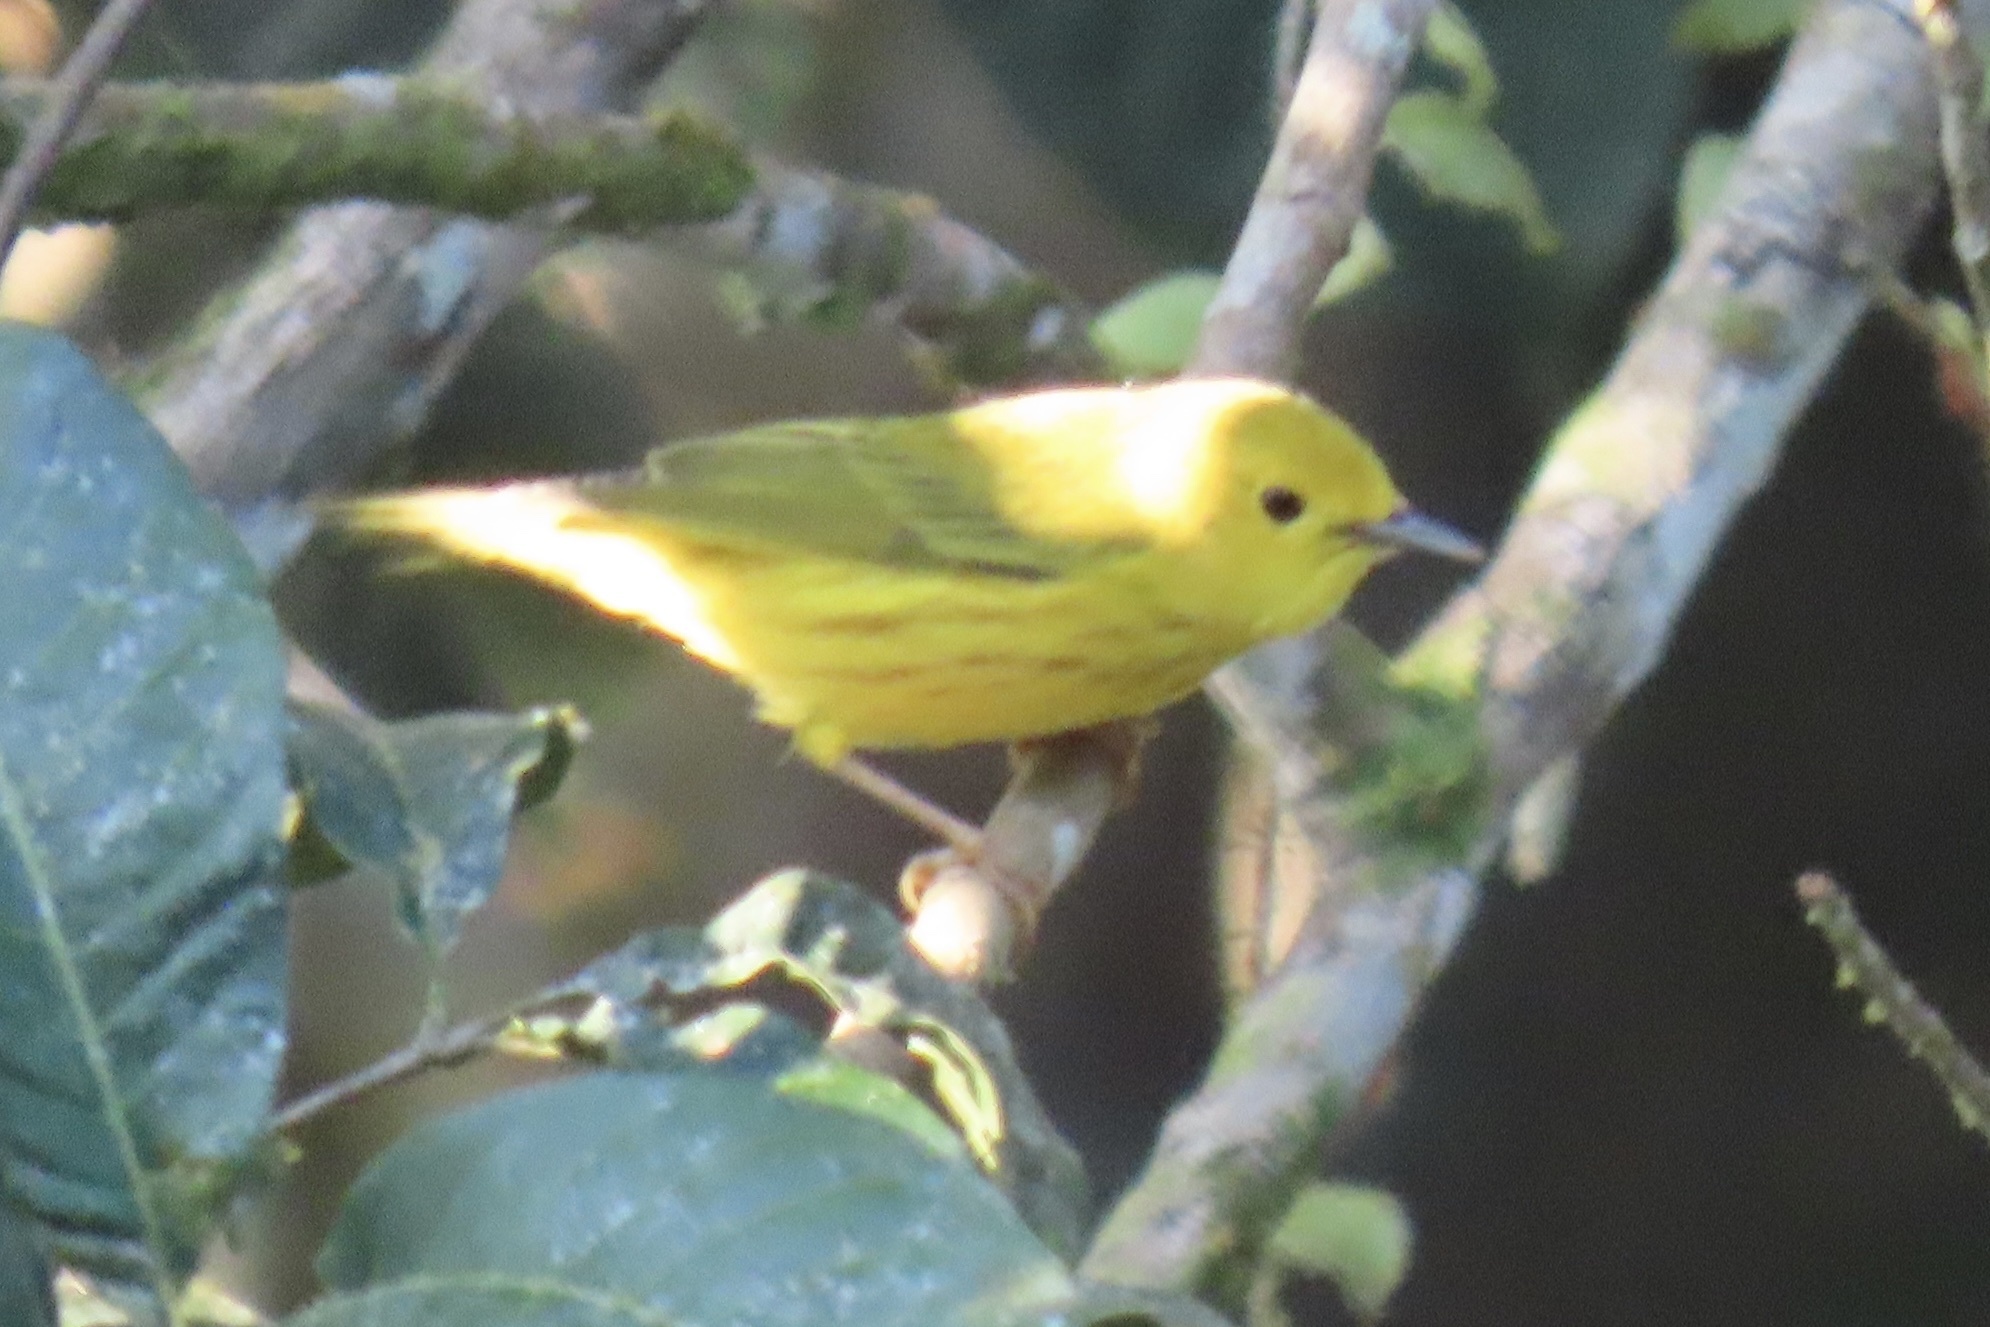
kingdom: Animalia
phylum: Chordata
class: Aves
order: Passeriformes
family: Parulidae
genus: Setophaga
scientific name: Setophaga petechia
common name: Yellow warbler
